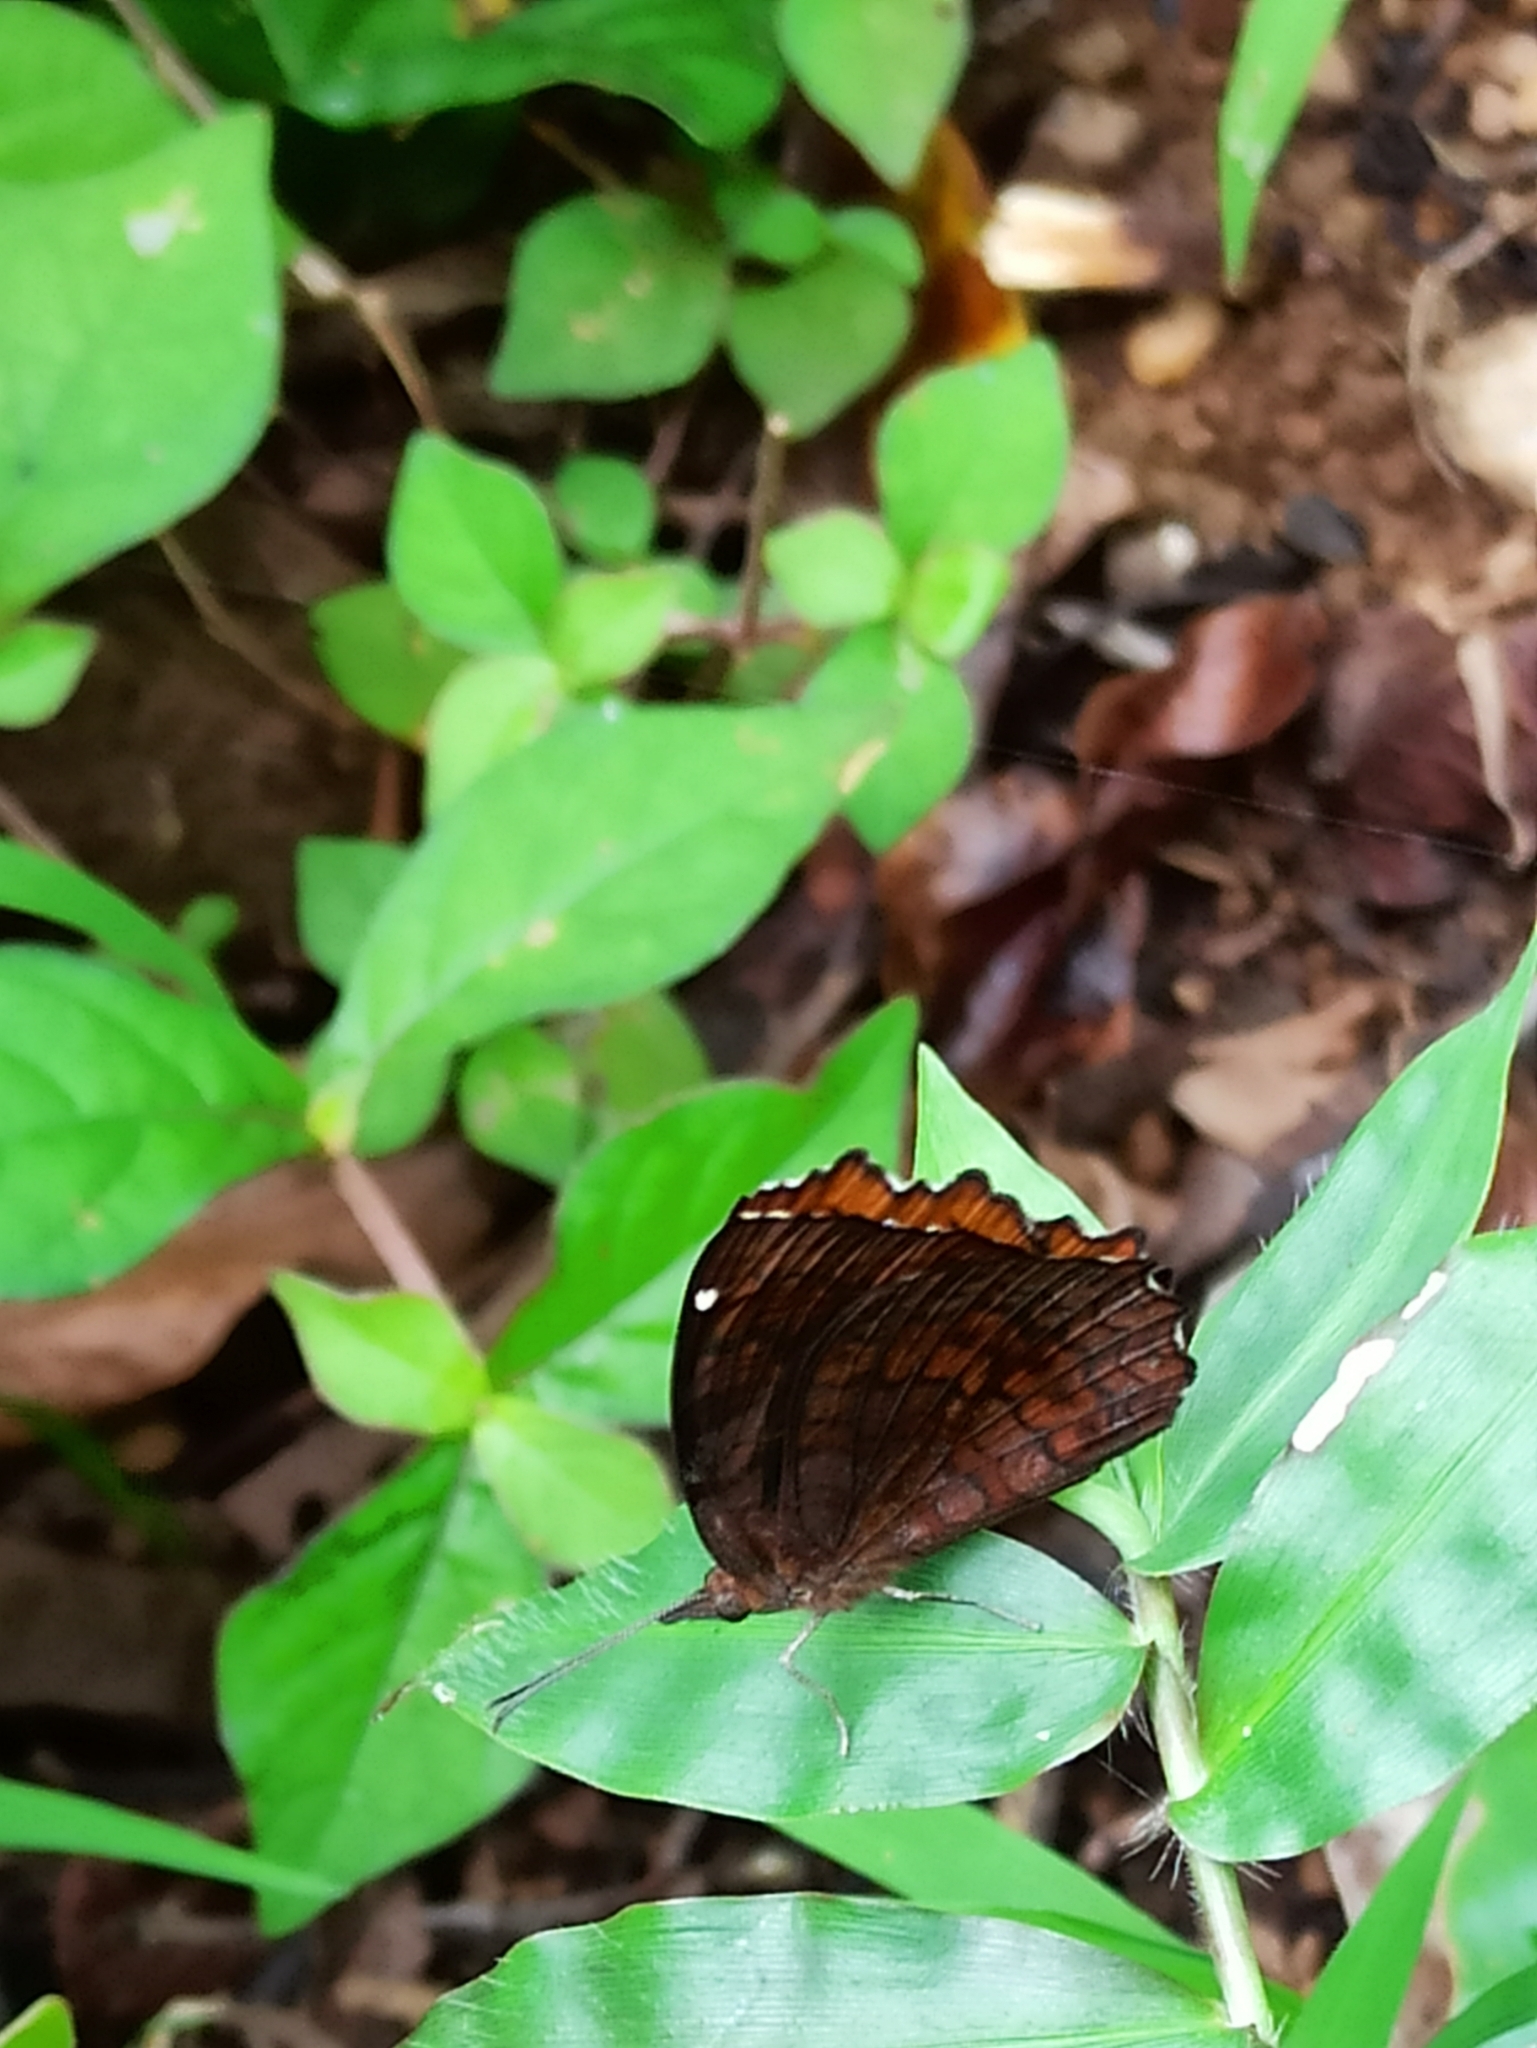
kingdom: Animalia
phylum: Arthropoda
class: Insecta
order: Lepidoptera
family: Nymphalidae
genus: Ariadne
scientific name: Ariadne ariadne
